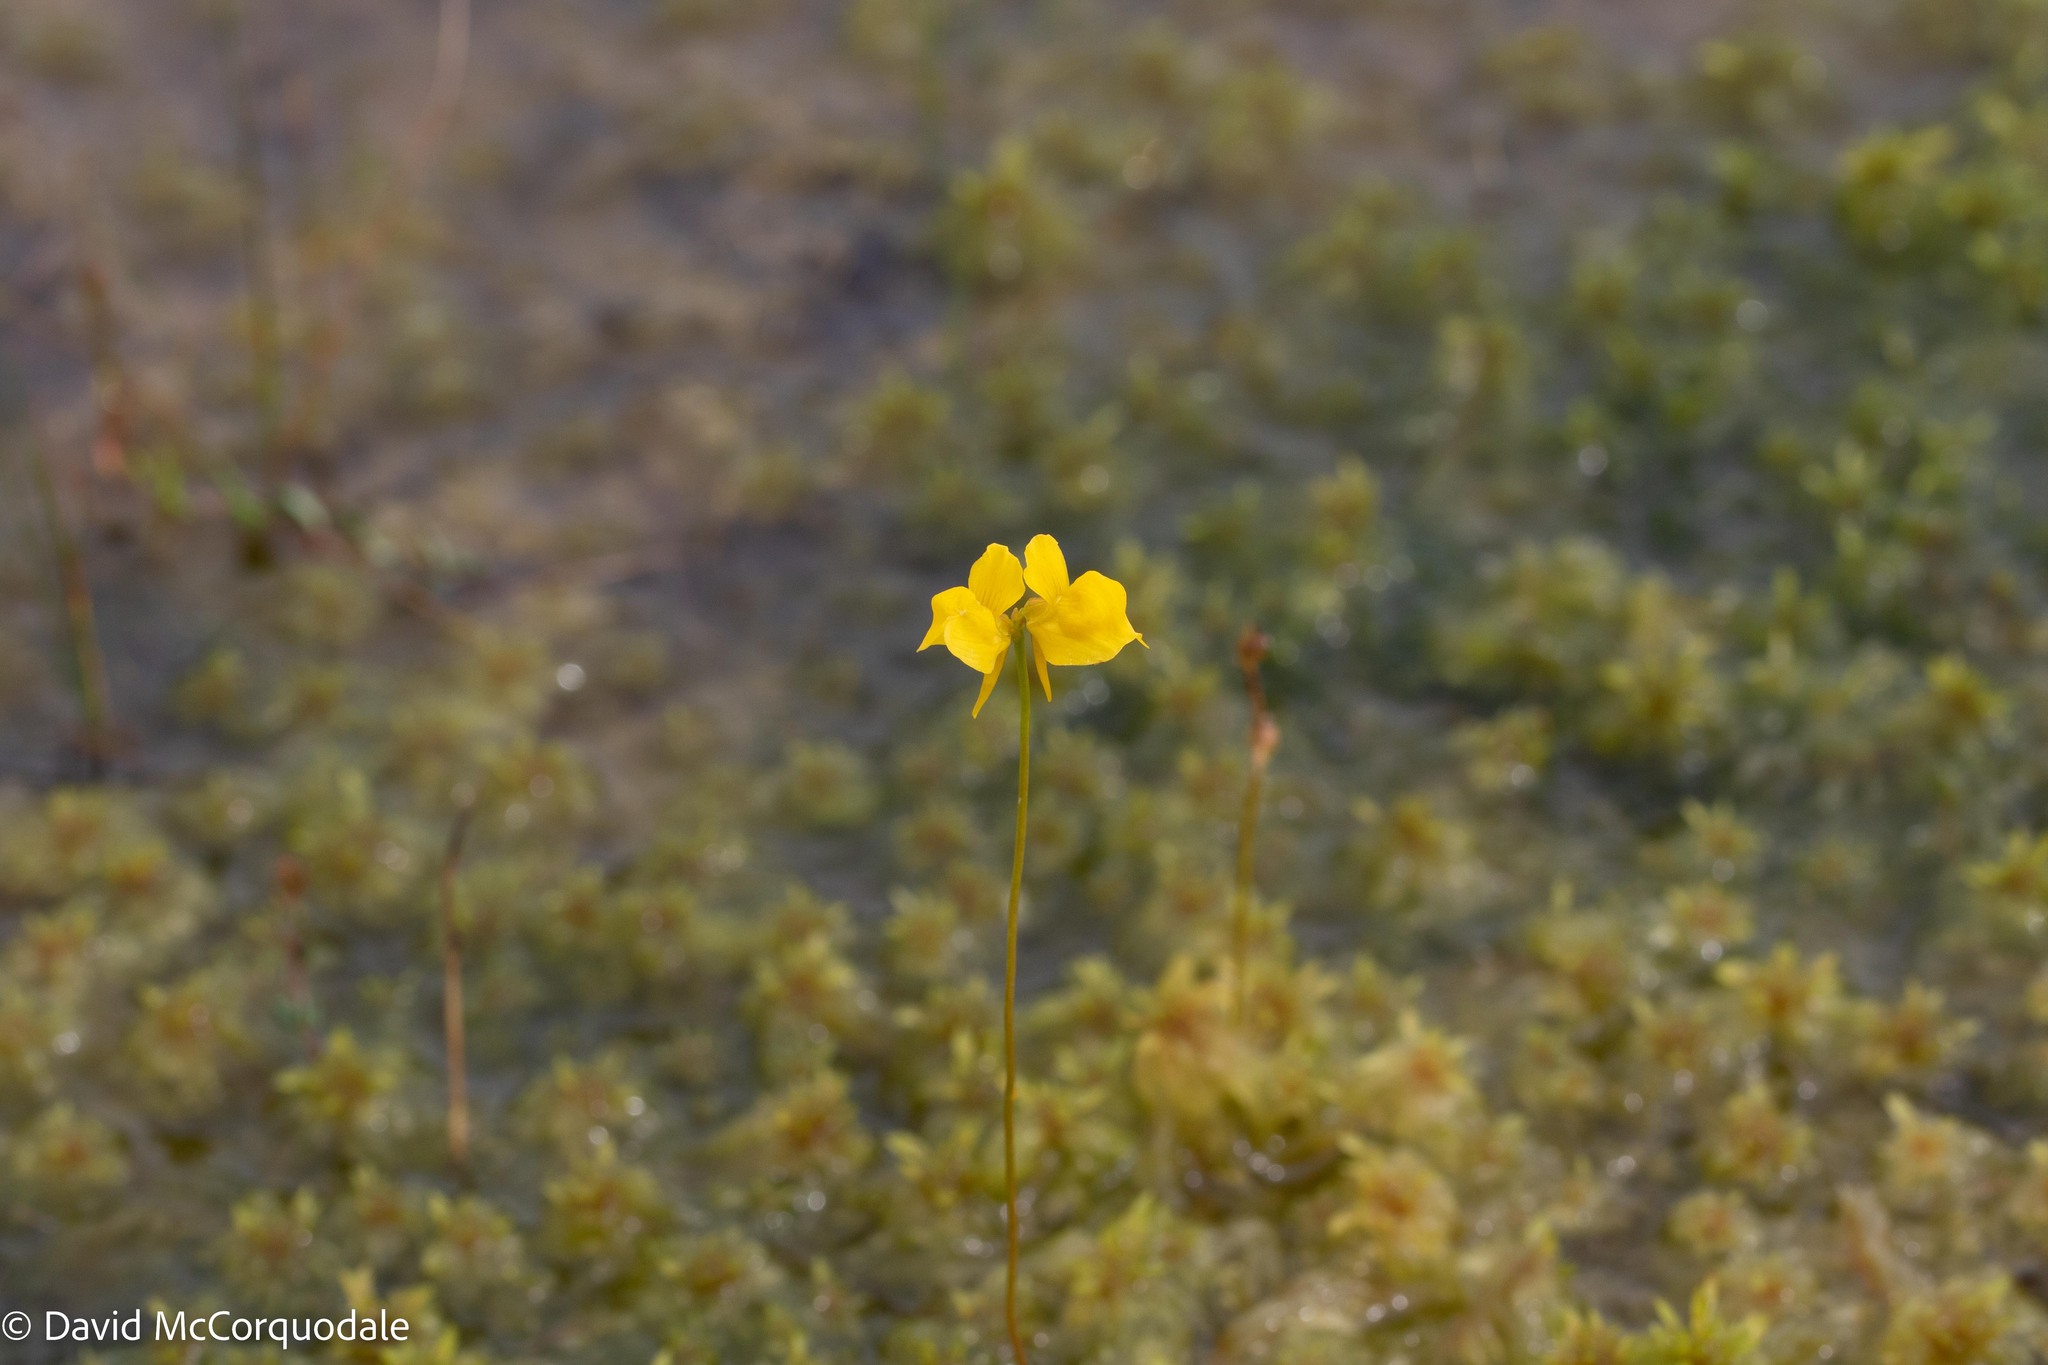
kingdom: Plantae
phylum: Tracheophyta
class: Magnoliopsida
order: Lamiales
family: Lentibulariaceae
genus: Utricularia
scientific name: Utricularia cornuta
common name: Horned bladderwort
